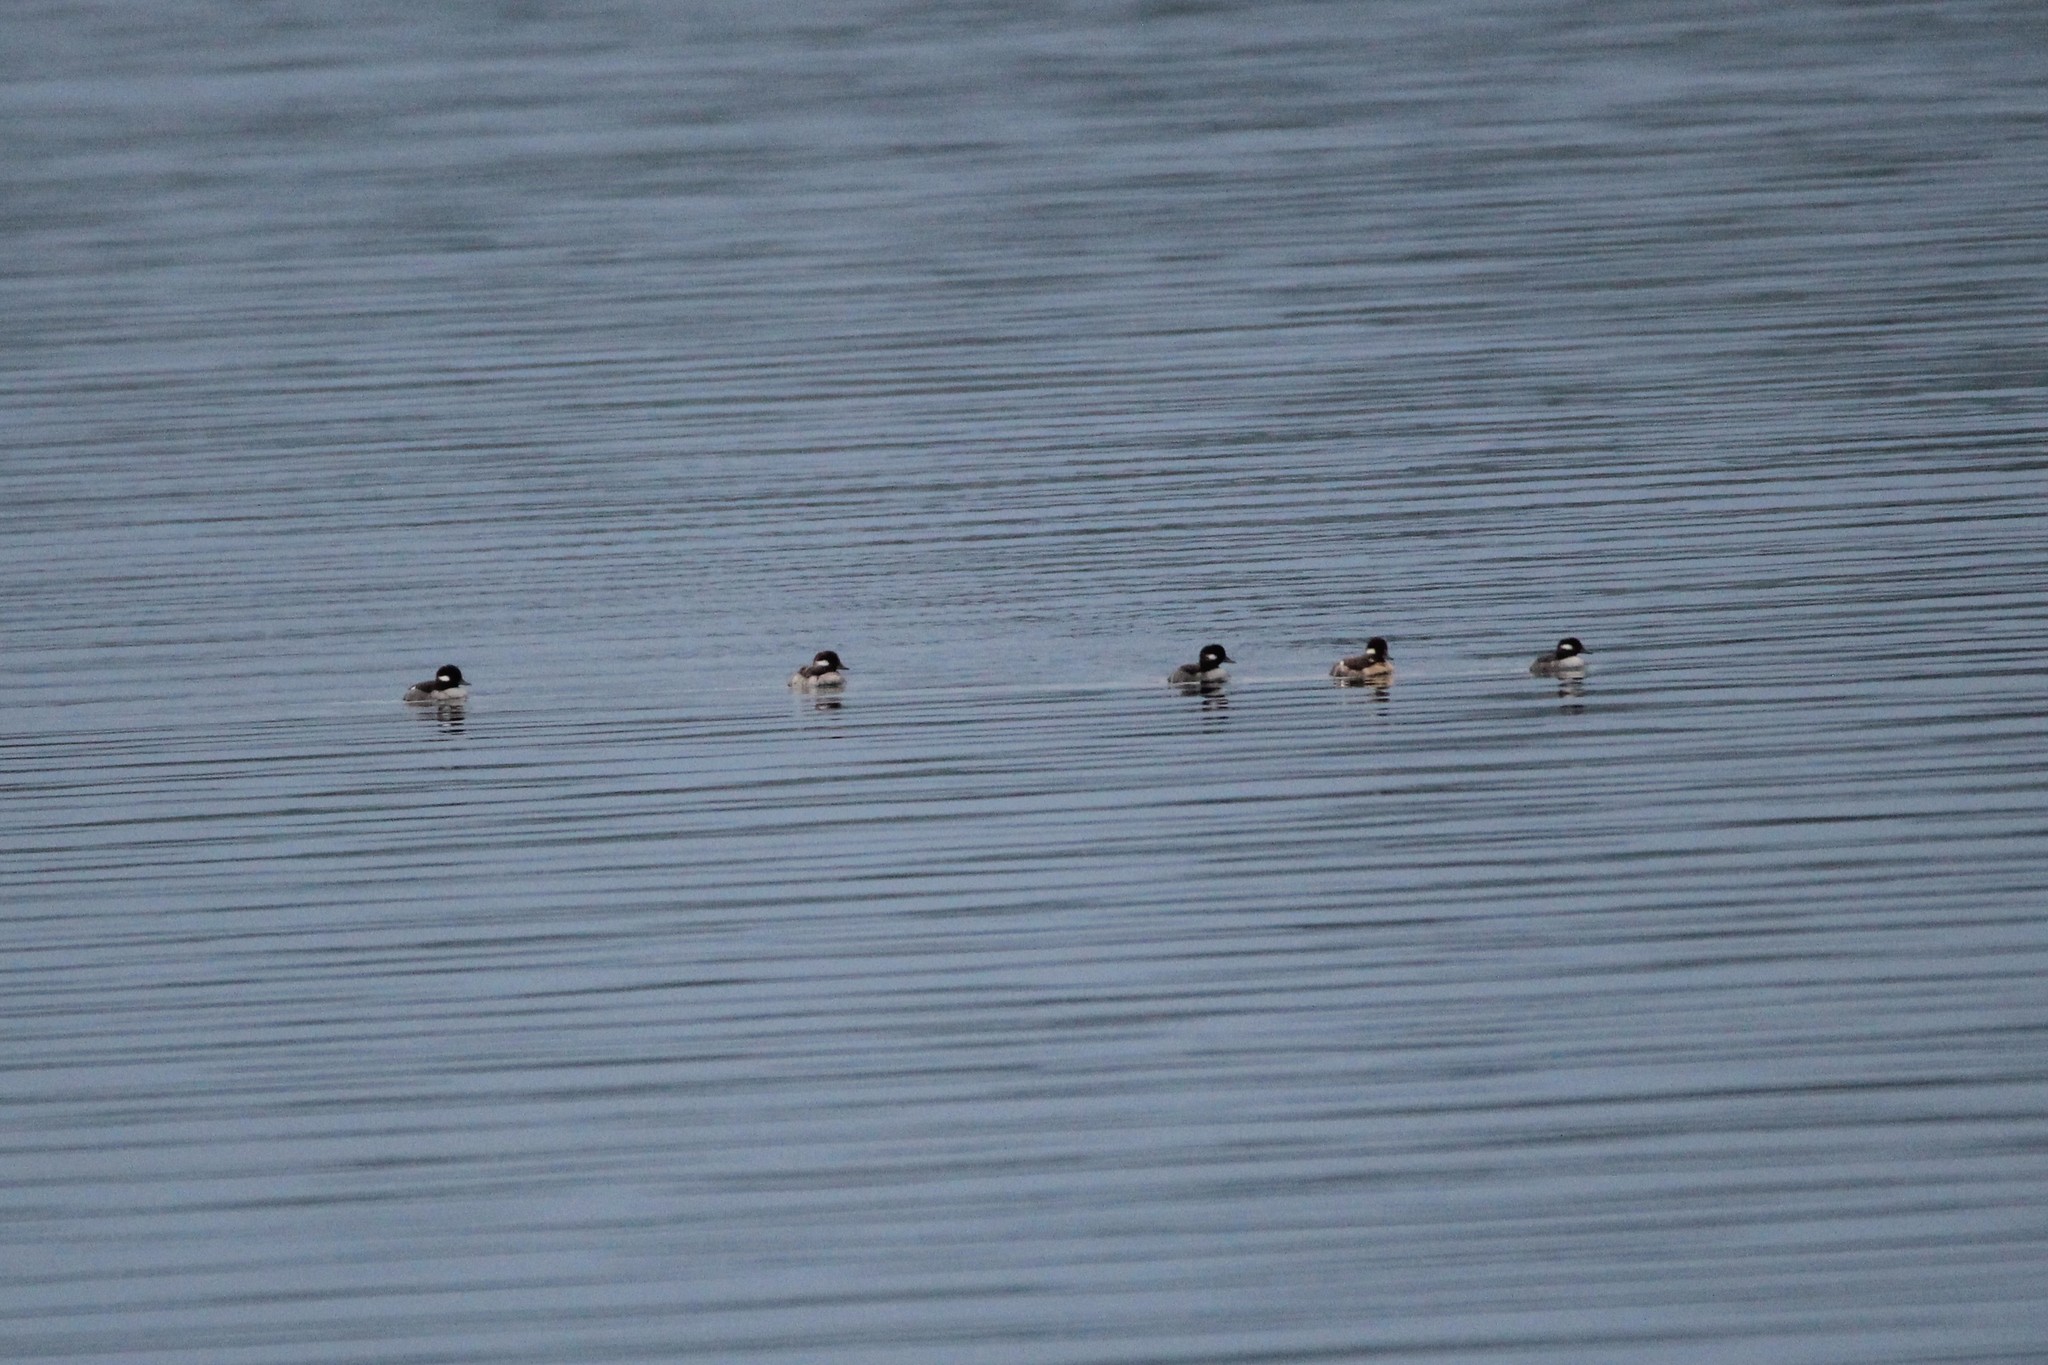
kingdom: Animalia
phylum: Chordata
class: Aves
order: Anseriformes
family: Anatidae
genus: Bucephala
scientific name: Bucephala albeola
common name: Bufflehead
